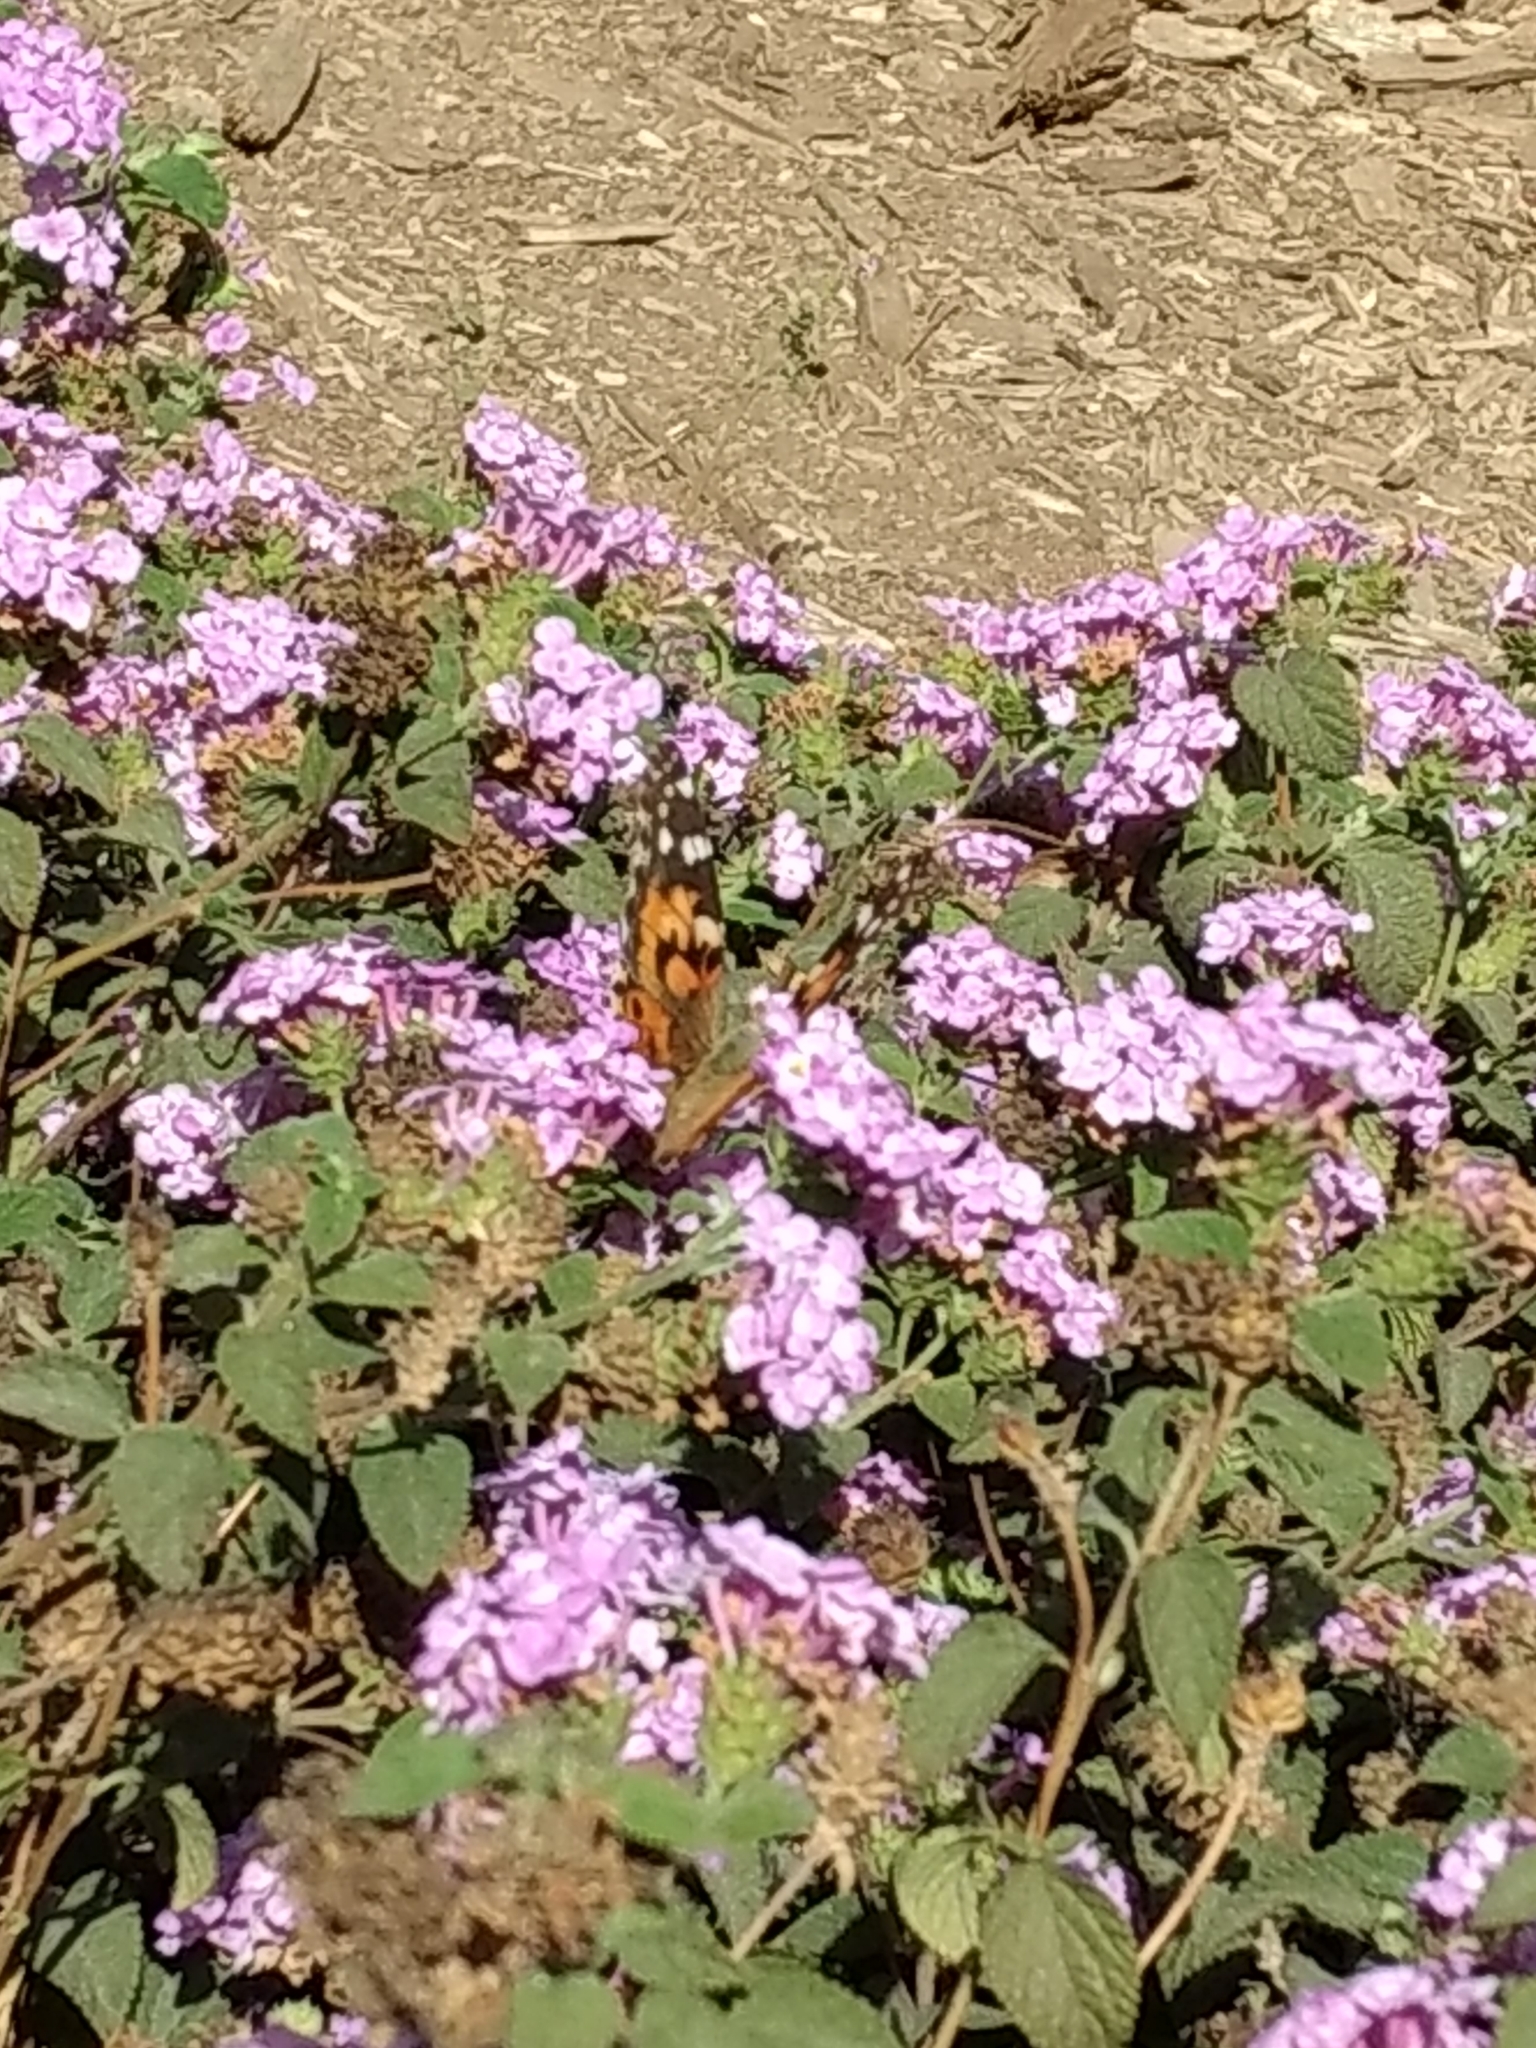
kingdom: Animalia
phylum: Arthropoda
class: Insecta
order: Lepidoptera
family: Nymphalidae
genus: Vanessa
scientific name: Vanessa cardui
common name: Painted lady
